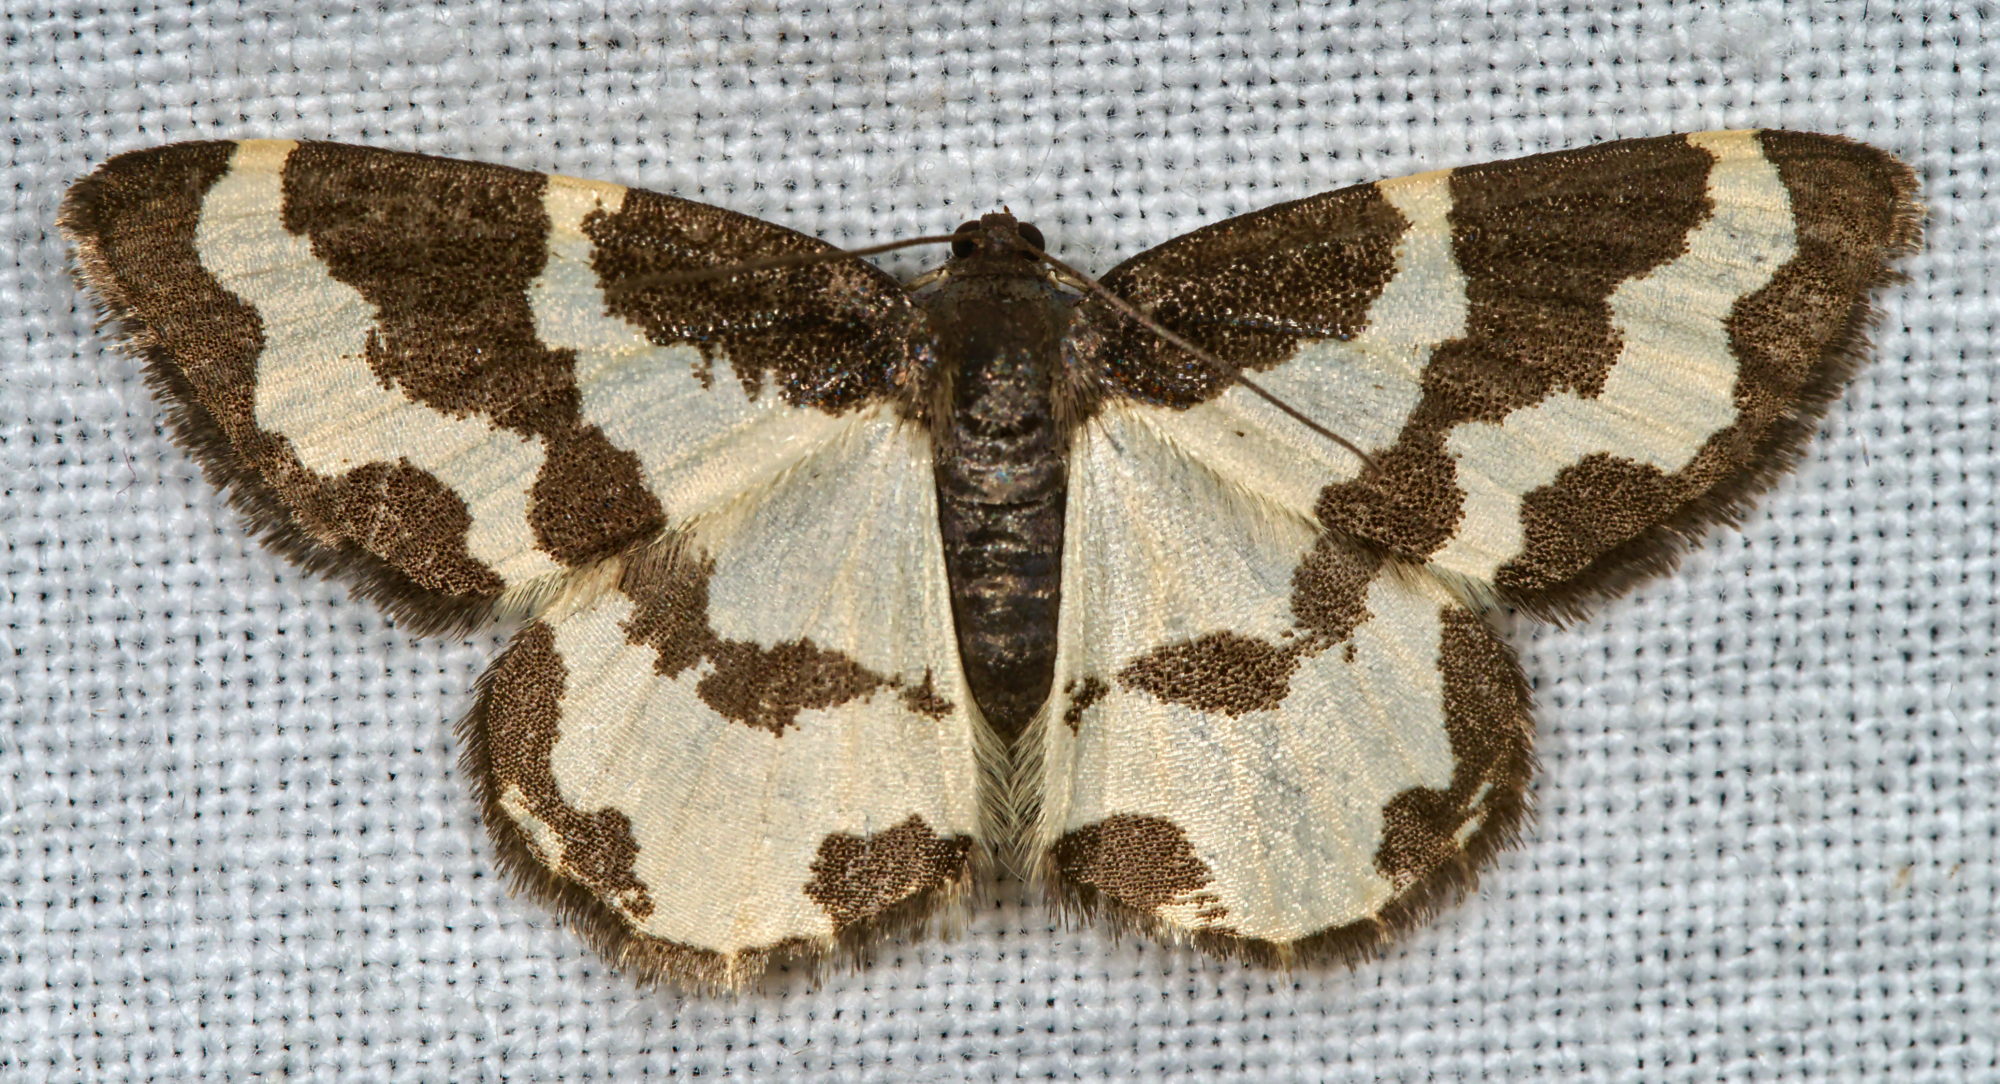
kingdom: Animalia
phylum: Arthropoda
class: Insecta
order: Lepidoptera
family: Geometridae
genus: Lomaspilis
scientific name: Lomaspilis marginata
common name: Clouded border
